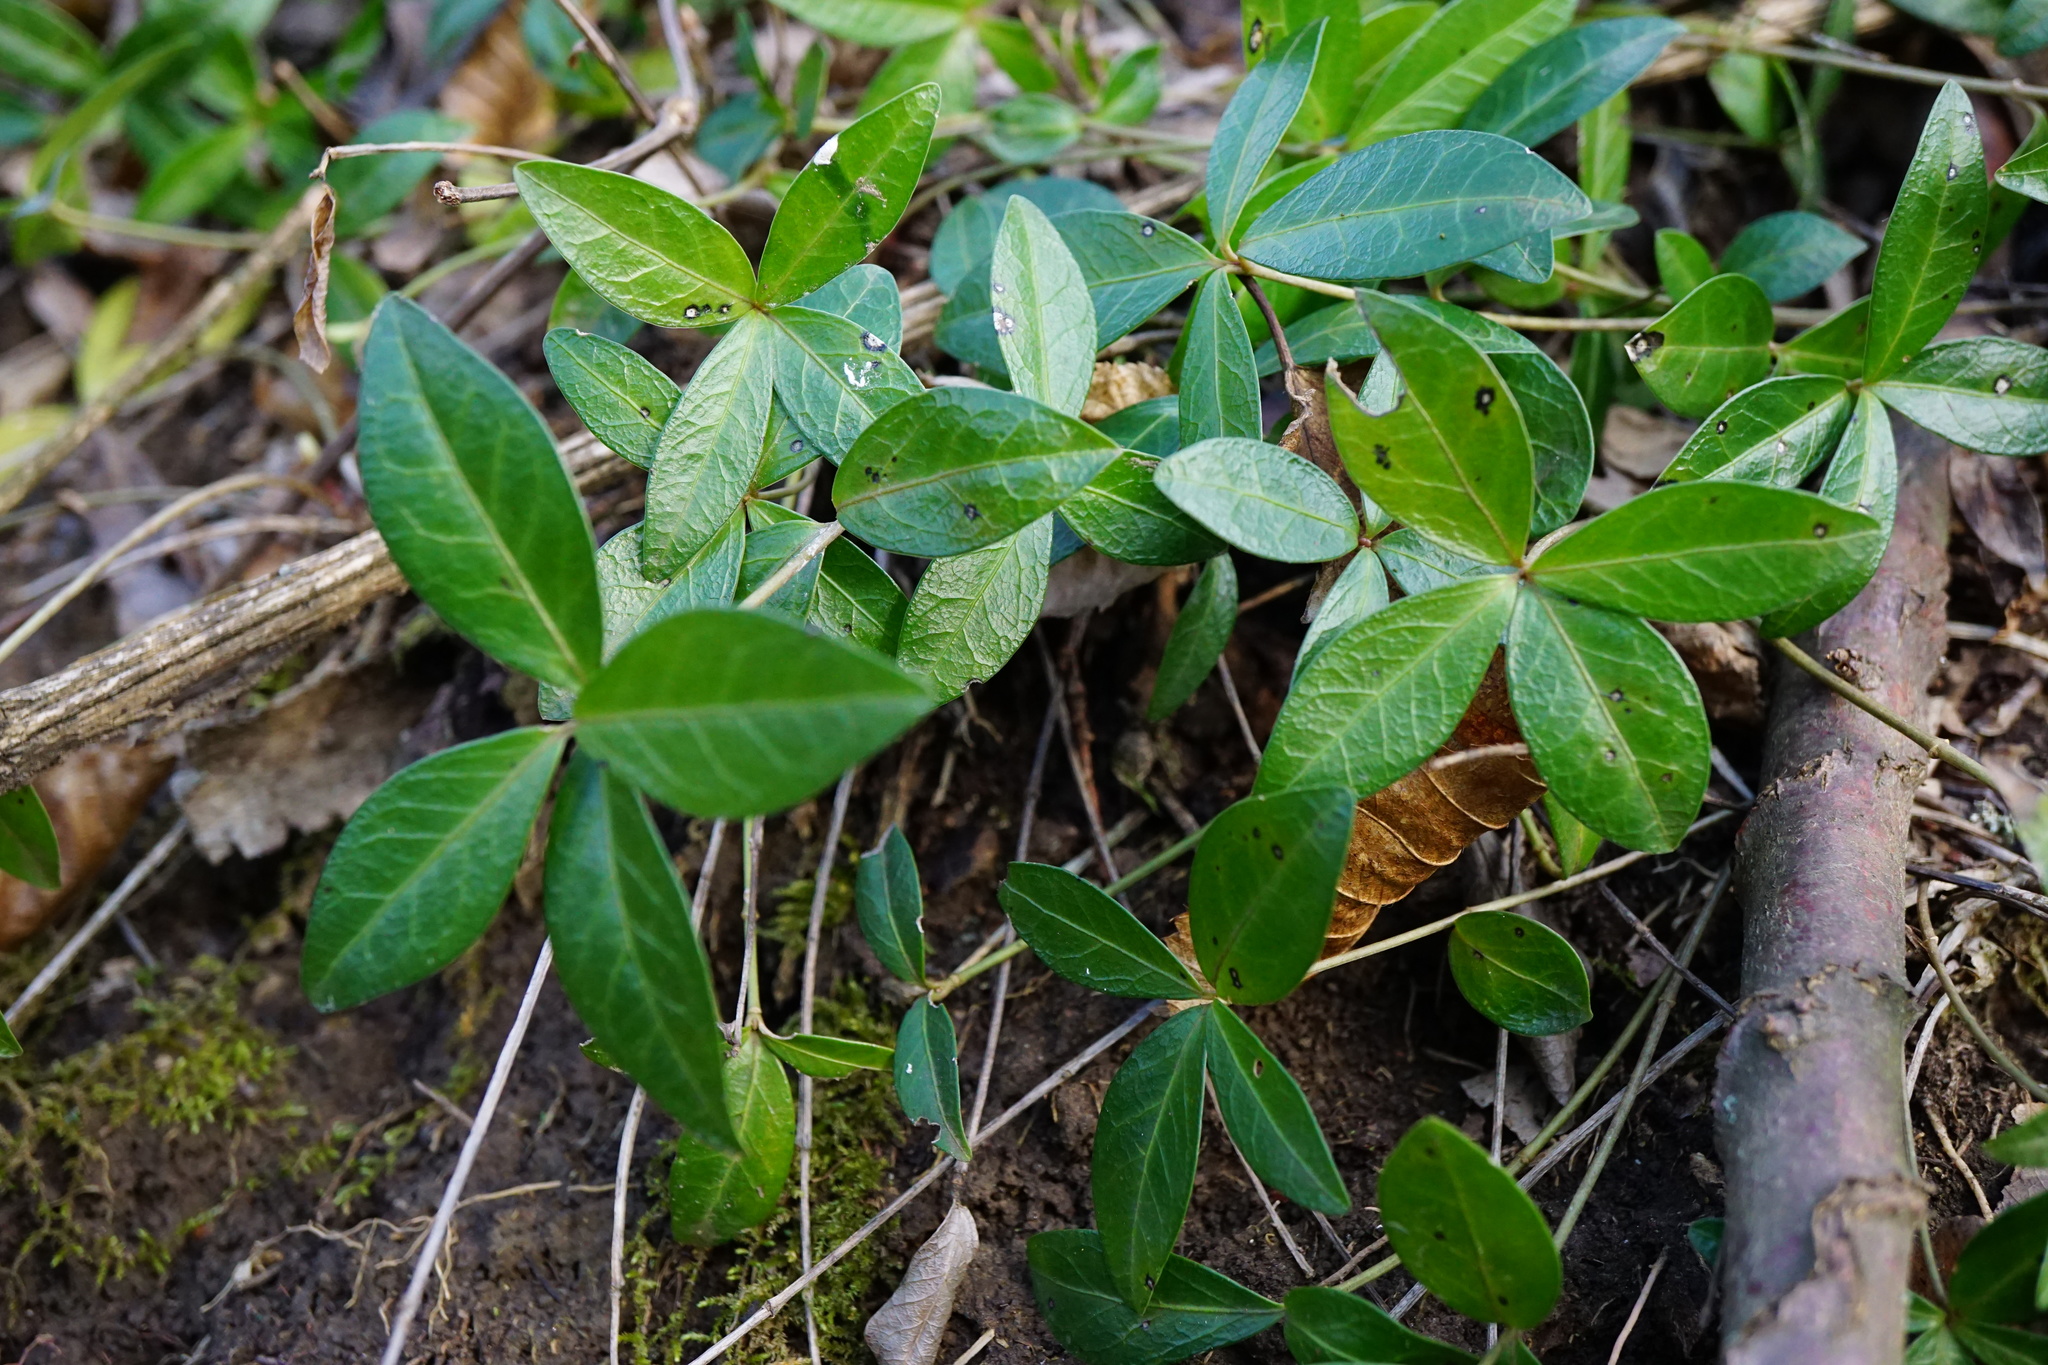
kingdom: Plantae
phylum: Tracheophyta
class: Magnoliopsida
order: Gentianales
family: Apocynaceae
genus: Vinca
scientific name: Vinca minor
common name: Lesser periwinkle
